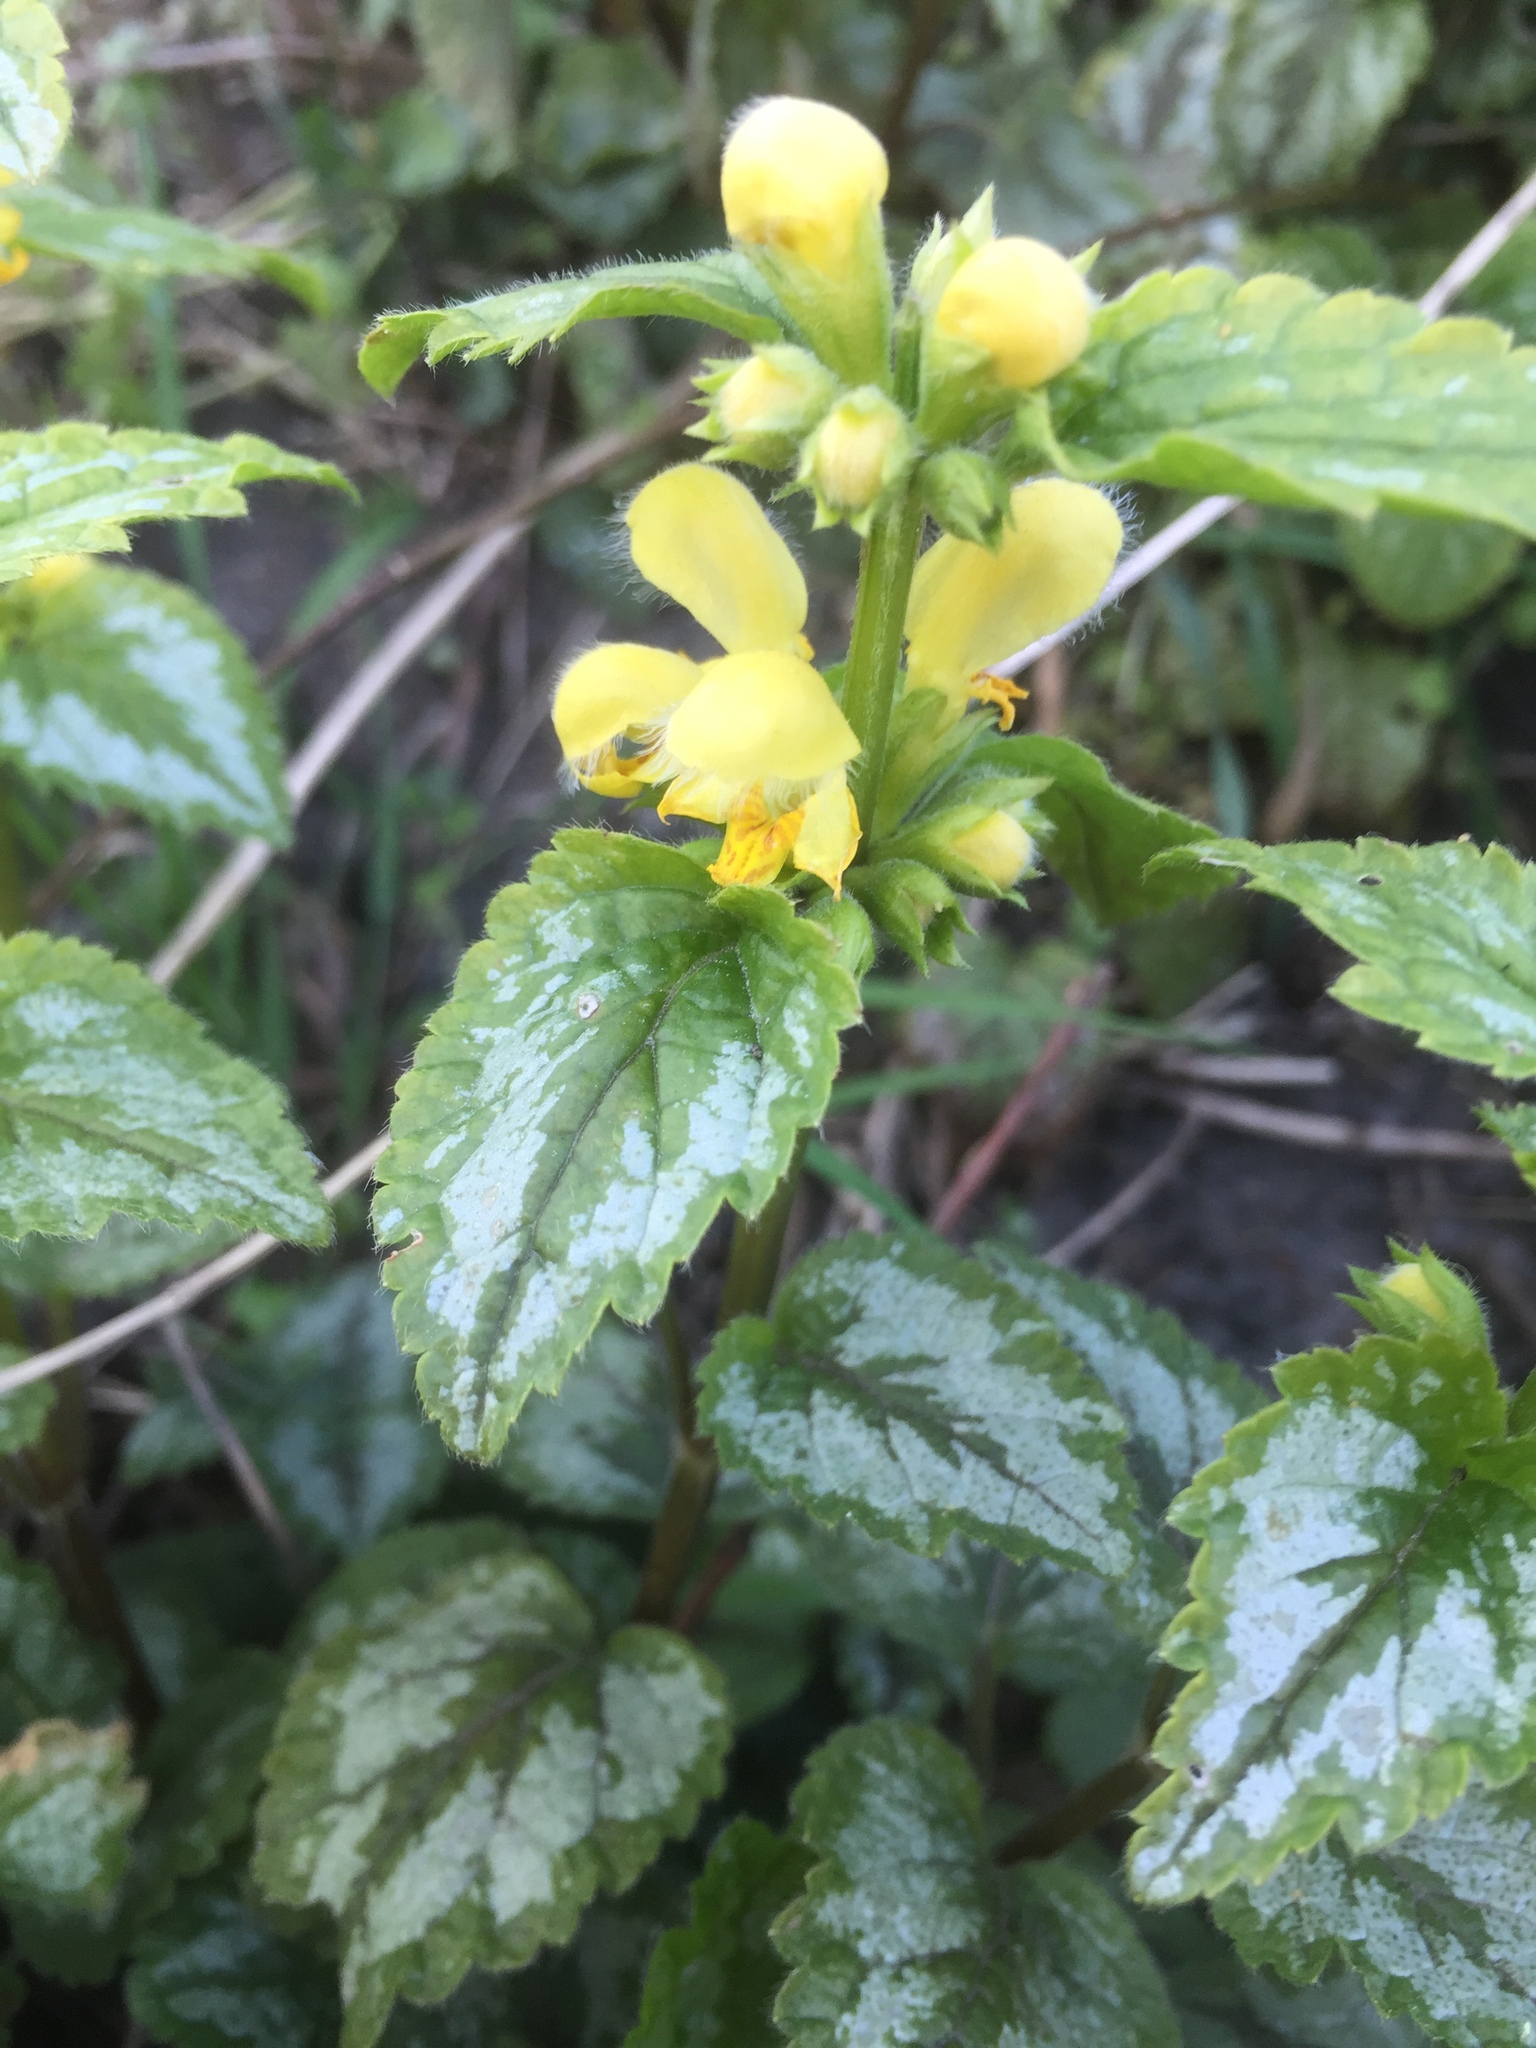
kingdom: Plantae
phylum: Tracheophyta
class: Magnoliopsida
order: Lamiales
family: Lamiaceae
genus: Lamium
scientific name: Lamium galeobdolon
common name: Yellow archangel
